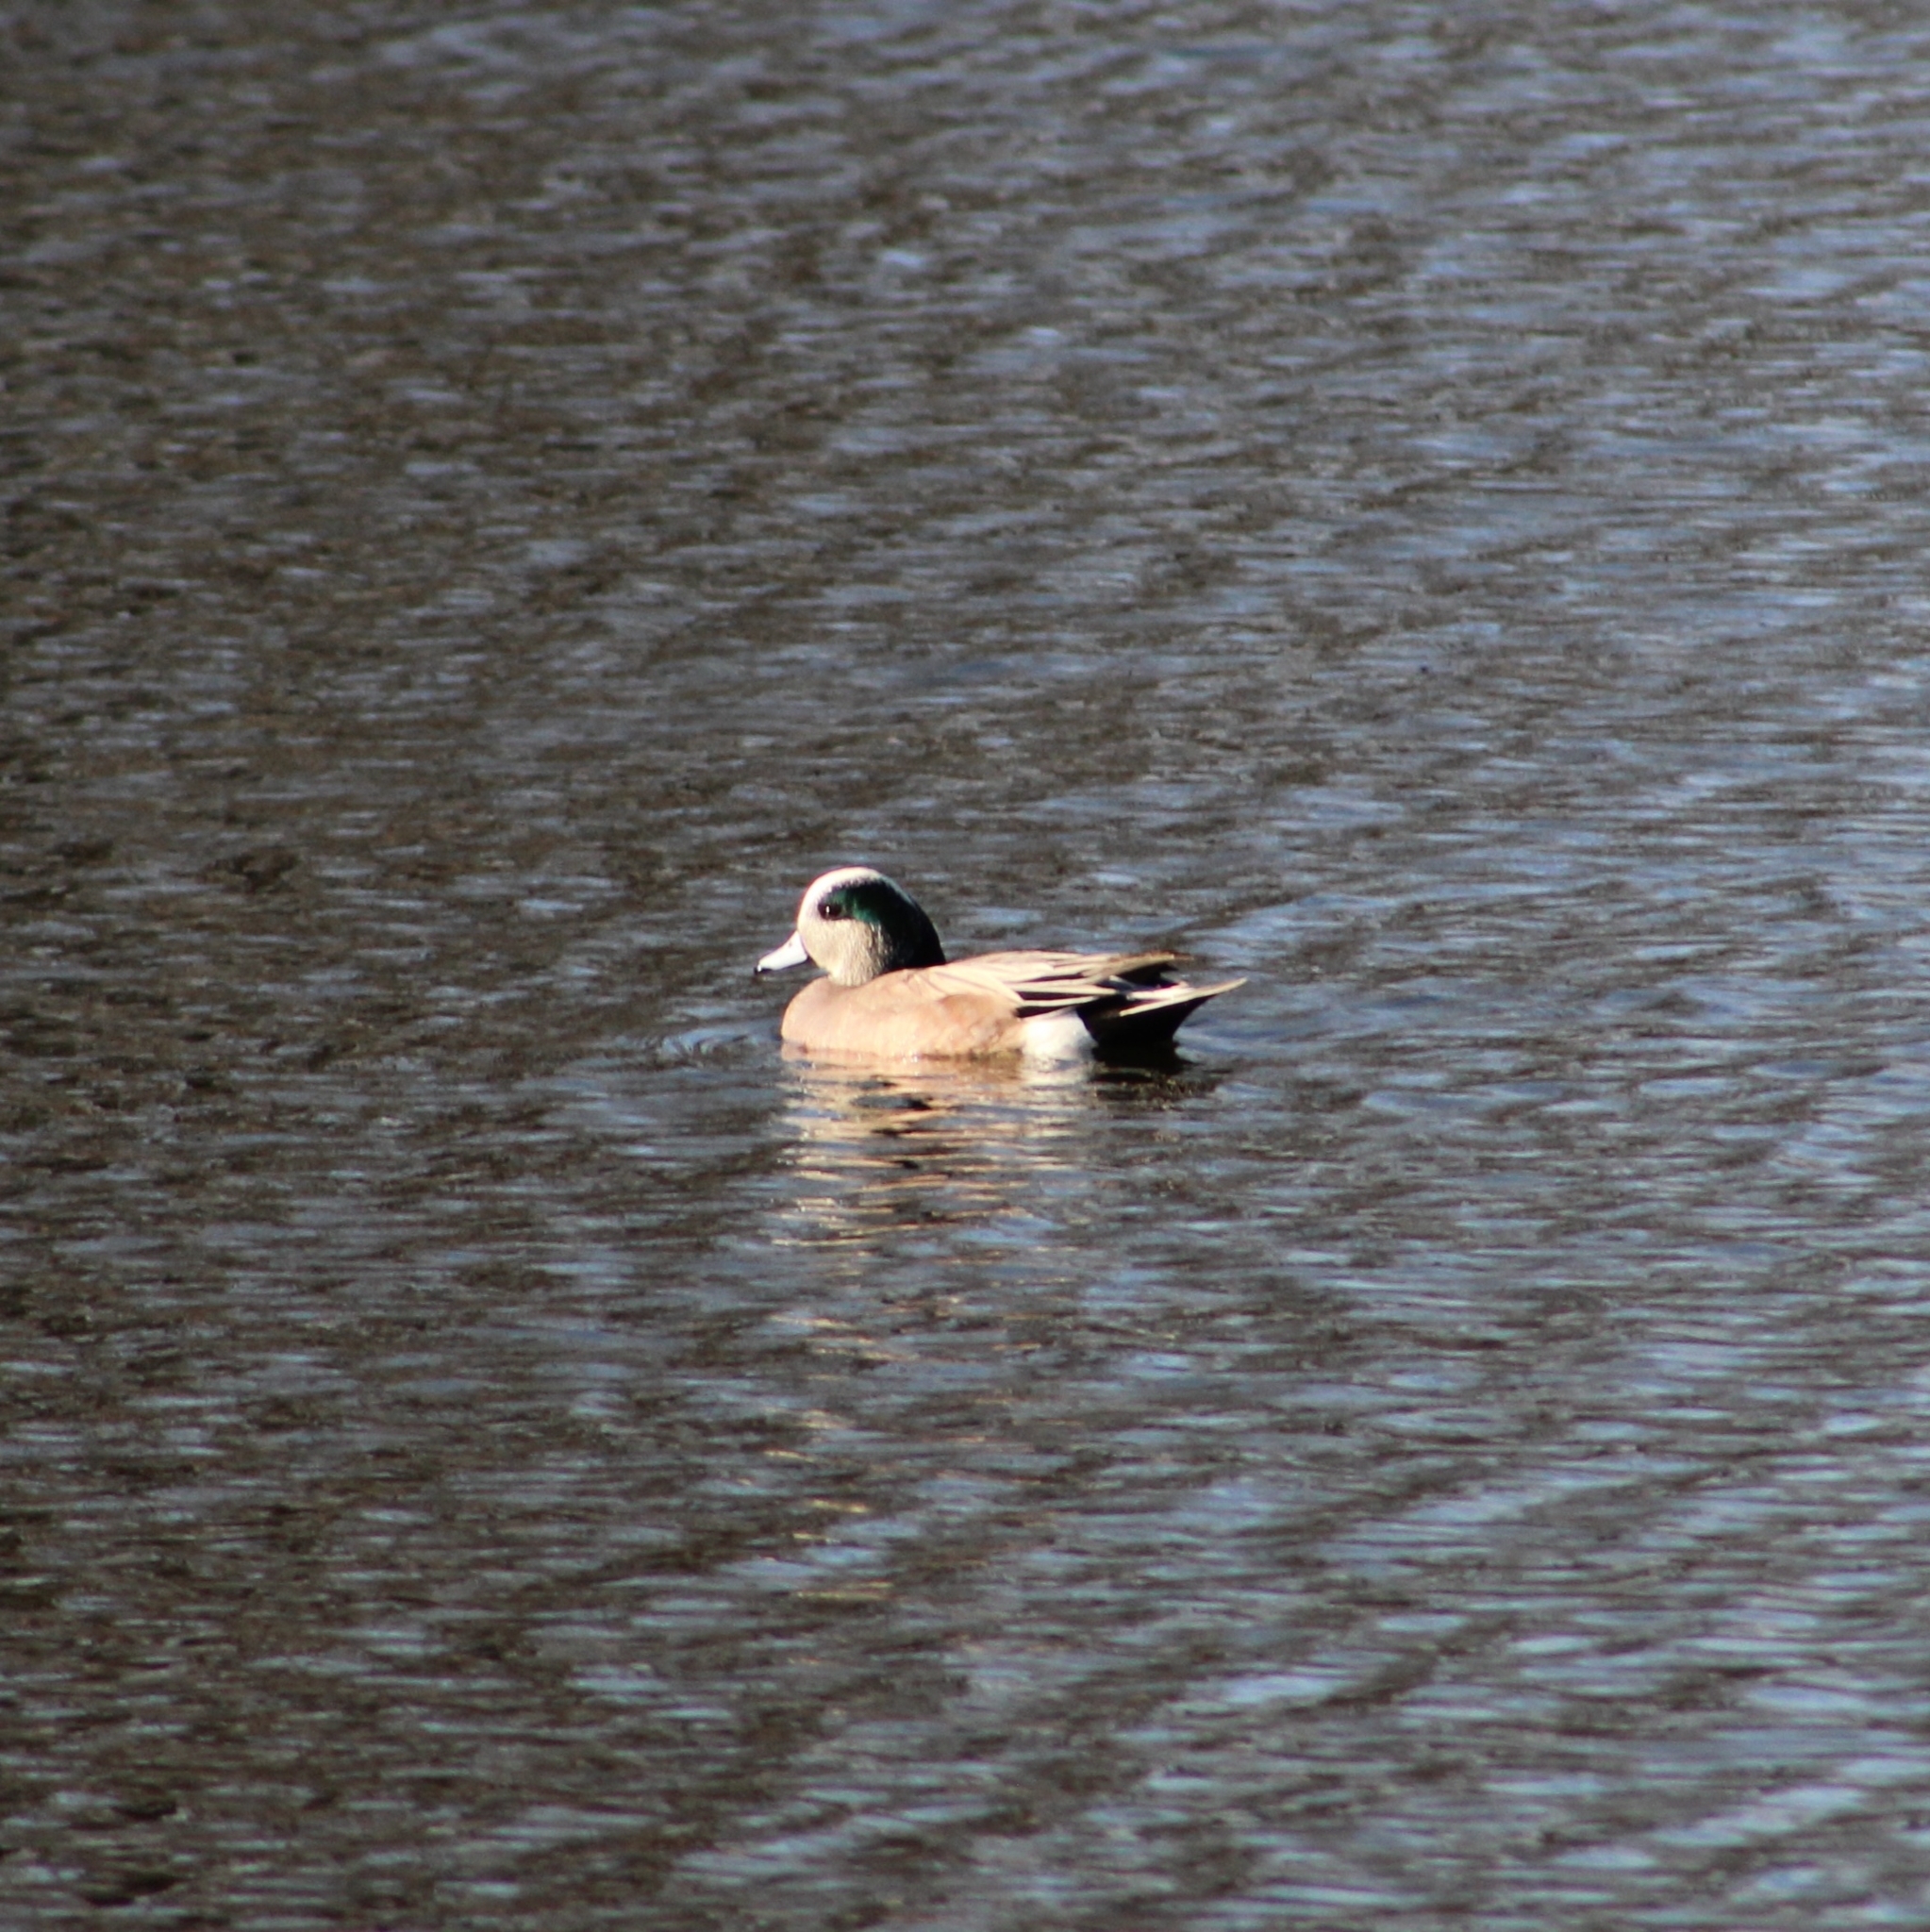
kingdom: Animalia
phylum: Chordata
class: Aves
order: Anseriformes
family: Anatidae
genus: Mareca
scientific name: Mareca americana
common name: American wigeon
